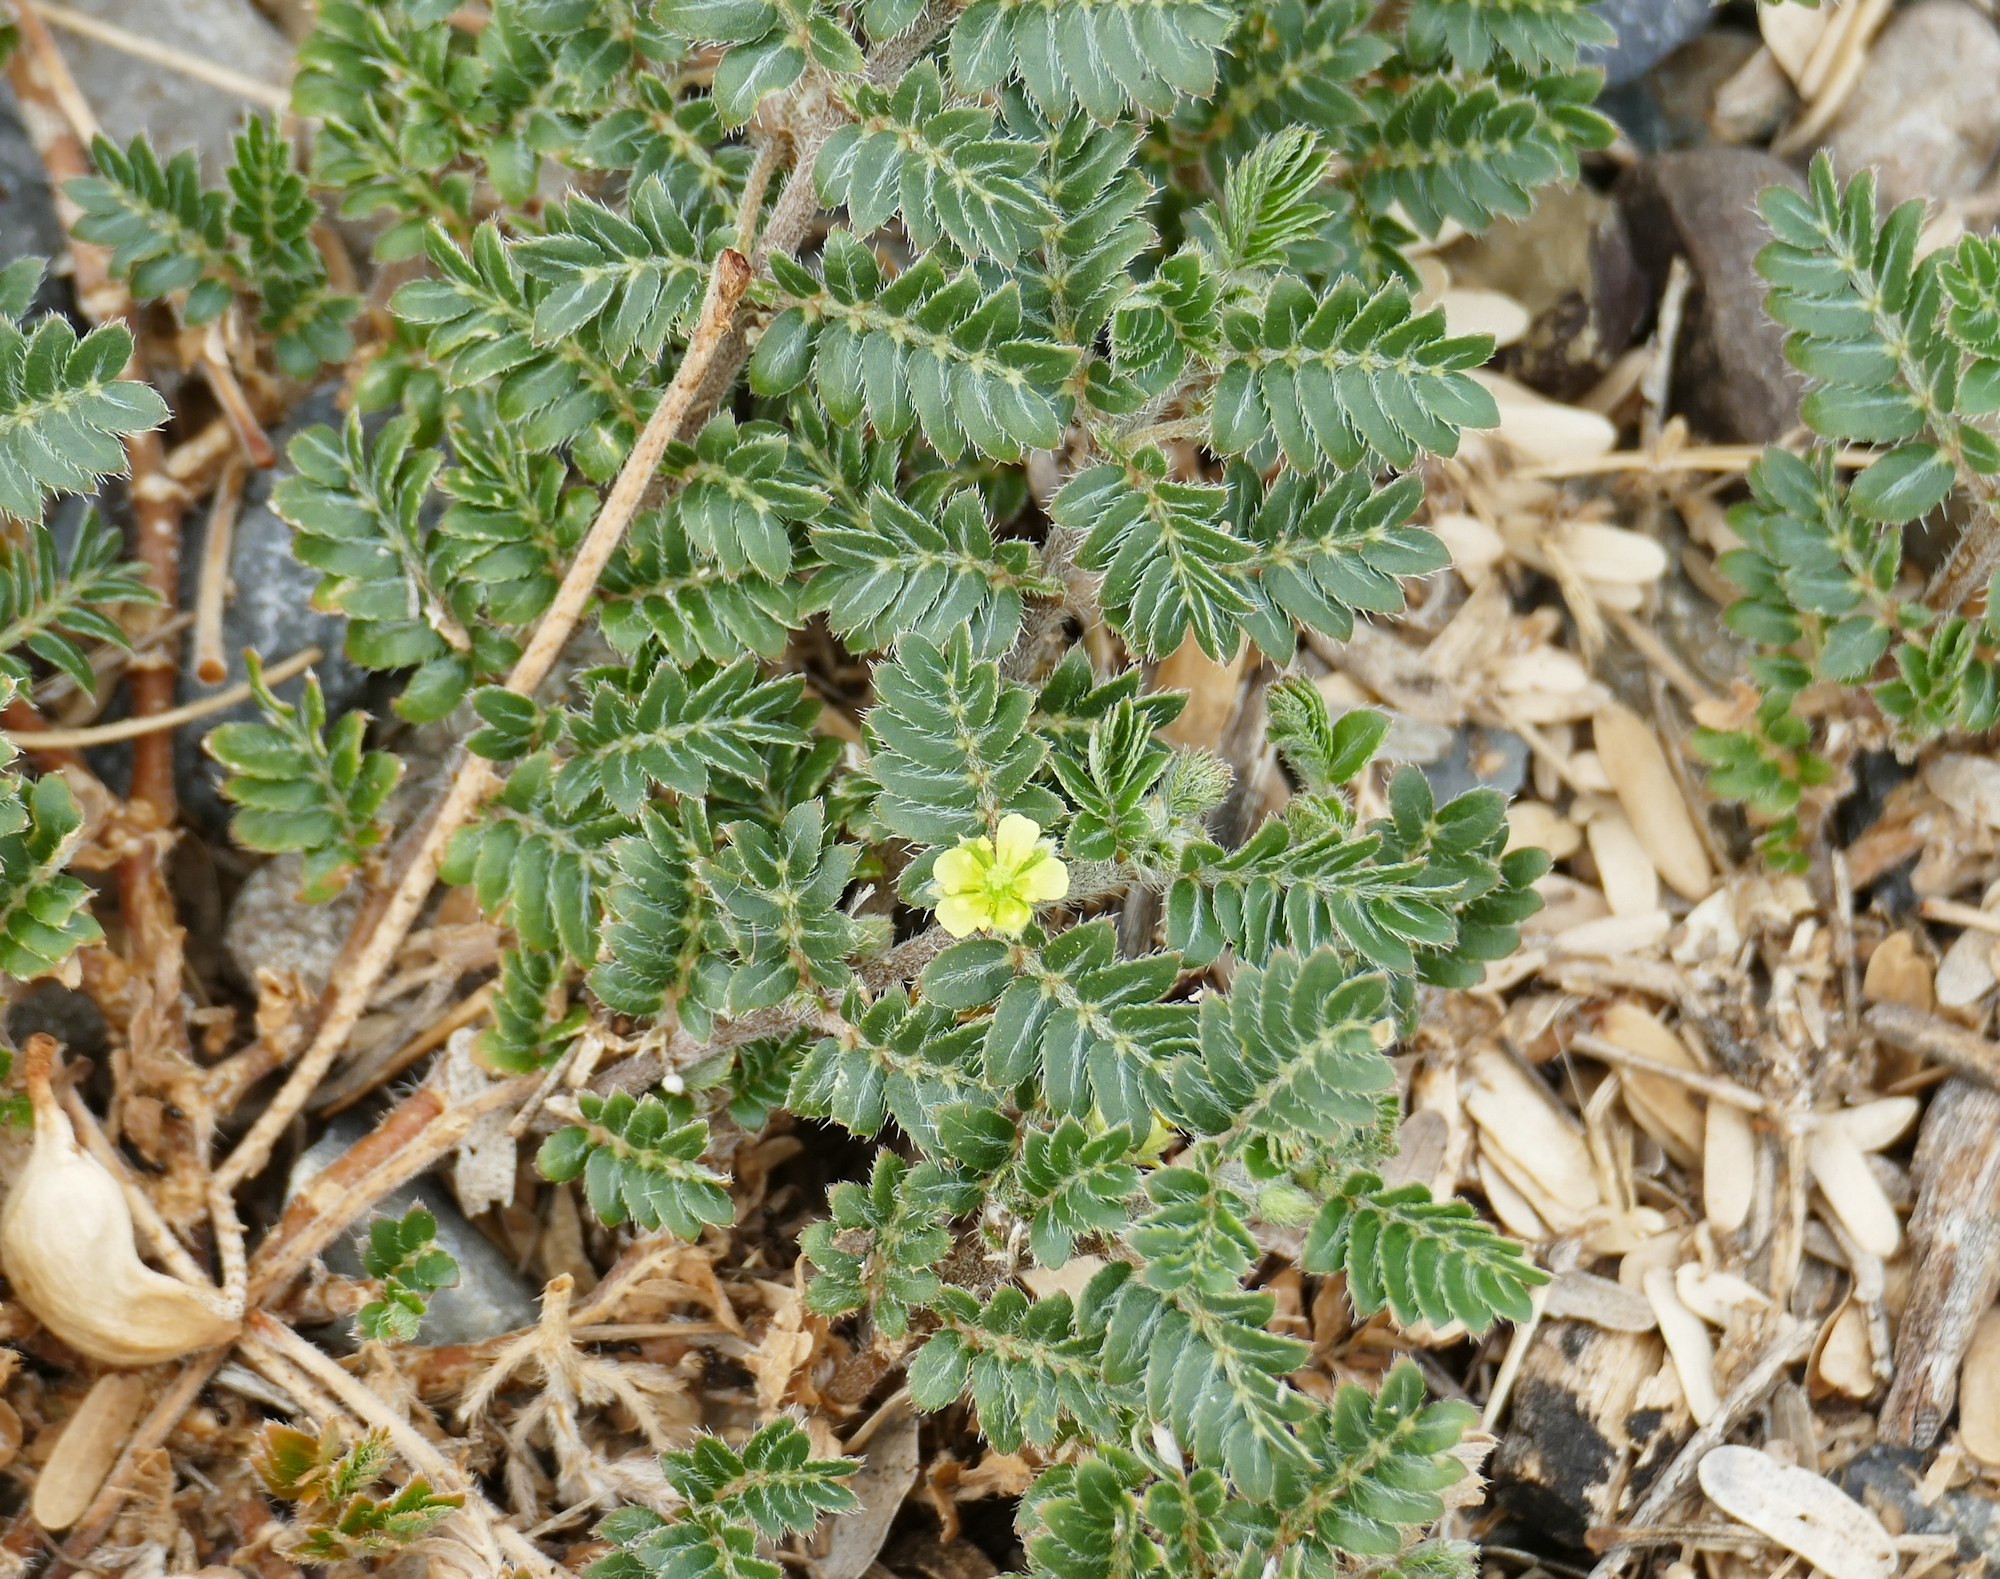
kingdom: Plantae
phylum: Tracheophyta
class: Magnoliopsida
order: Zygophyllales
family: Zygophyllaceae
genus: Tribulus
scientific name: Tribulus terrestris
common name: Puncturevine
